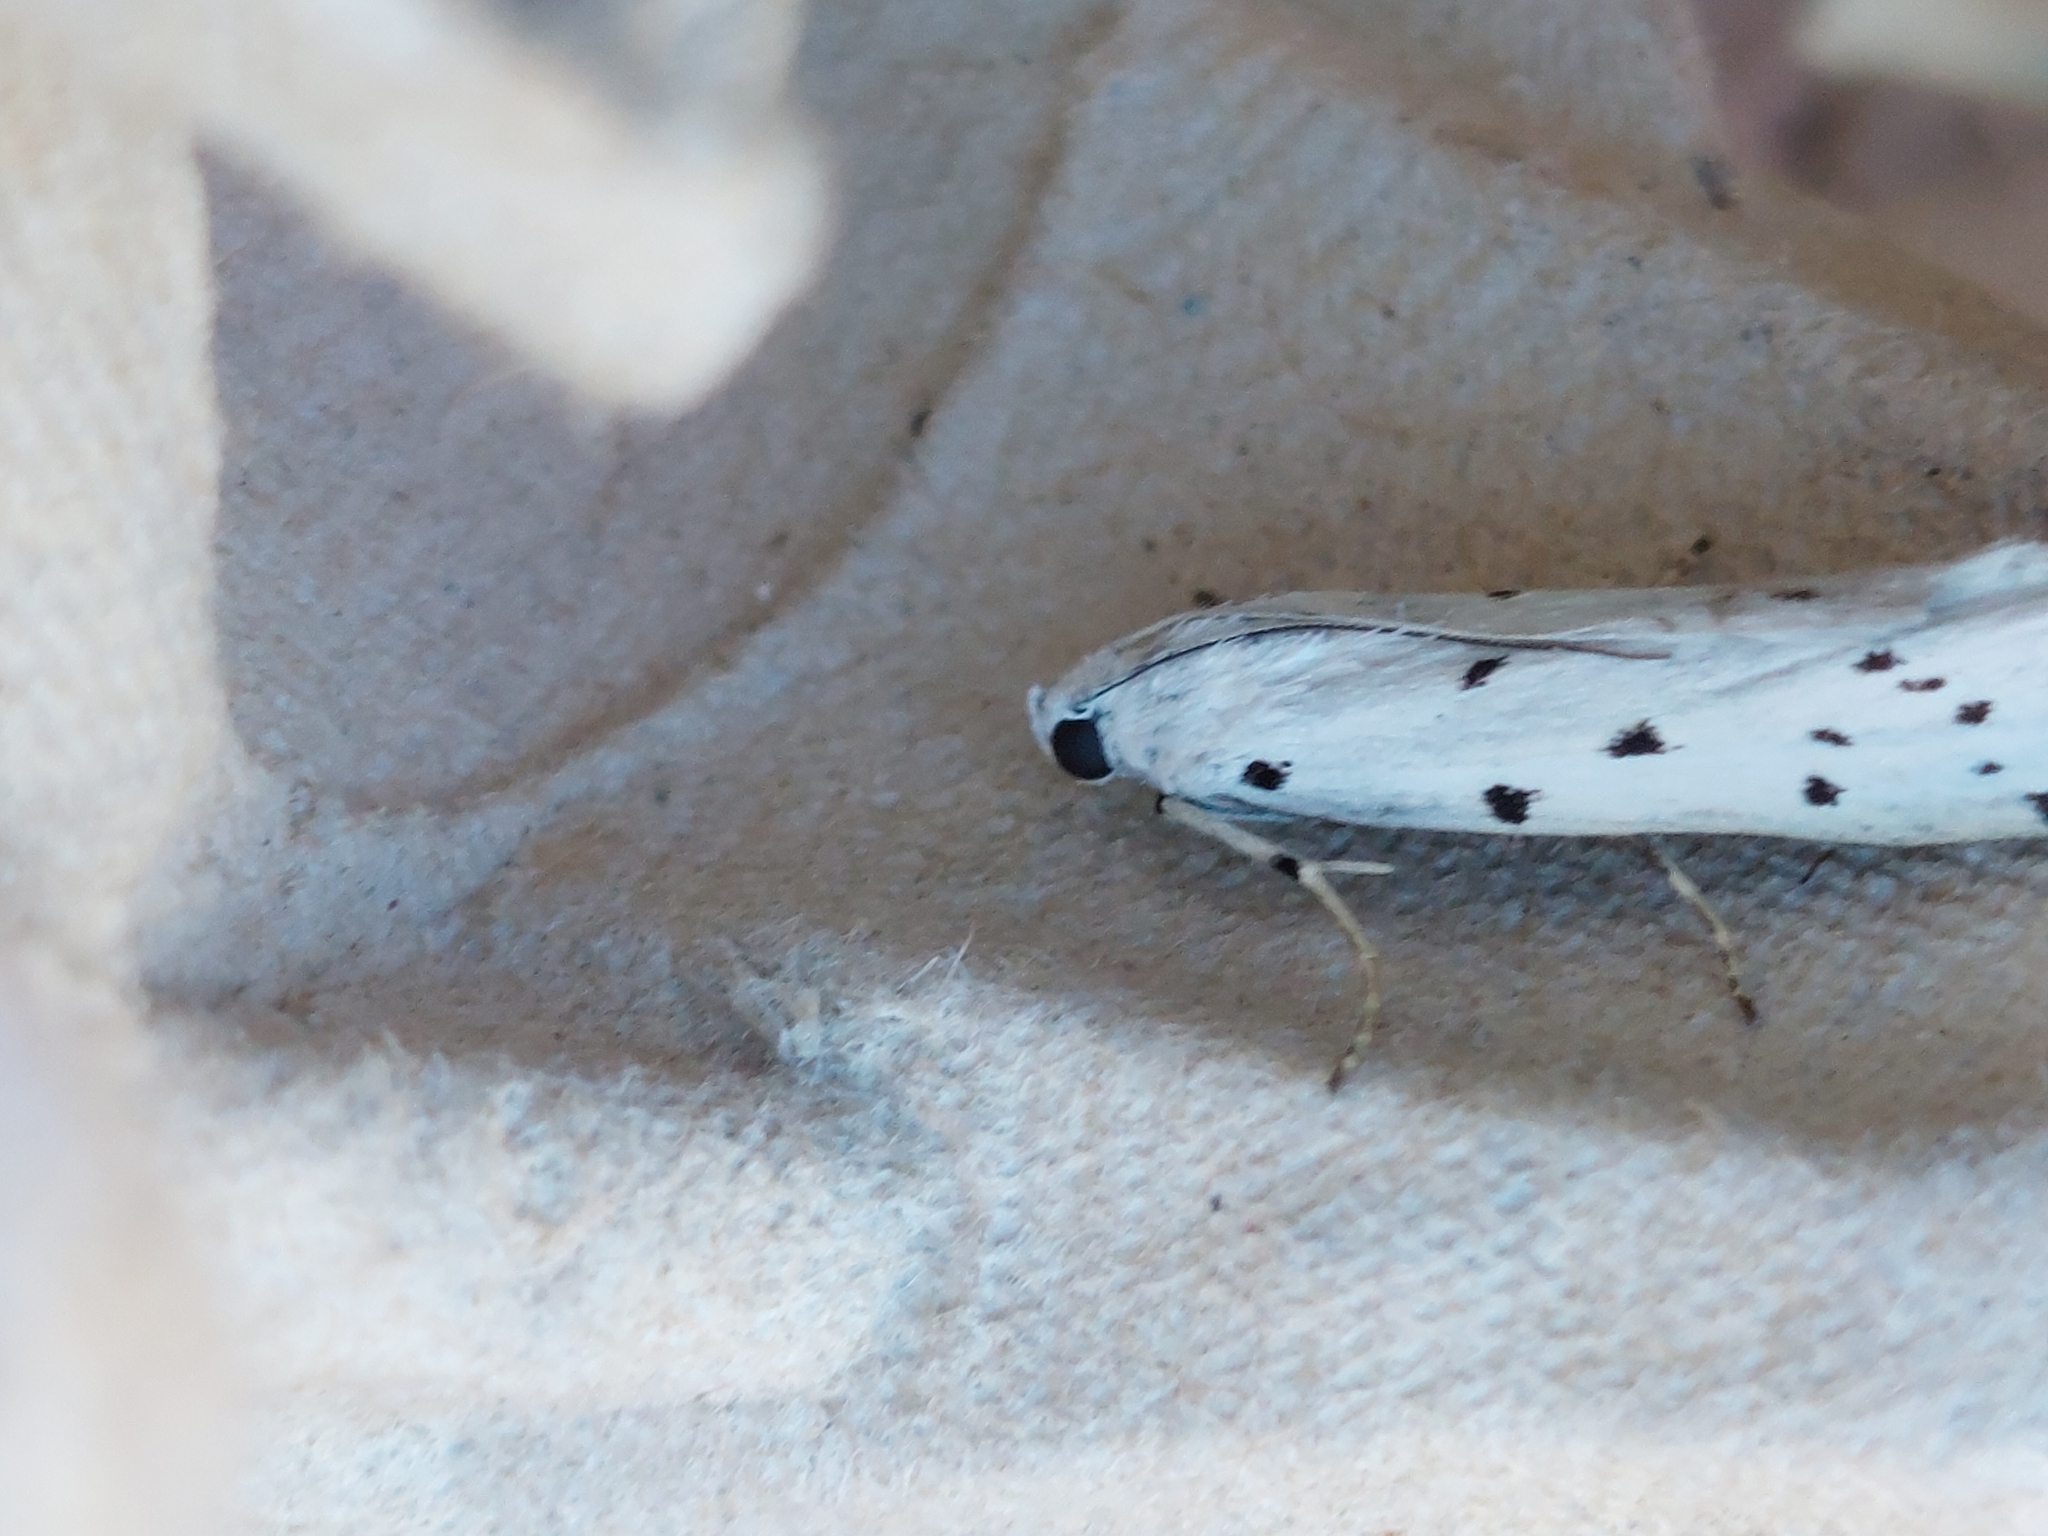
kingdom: Animalia
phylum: Arthropoda
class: Insecta
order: Lepidoptera
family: Pyralidae
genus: Myelois
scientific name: Myelois circumvoluta
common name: Thistle ermine
